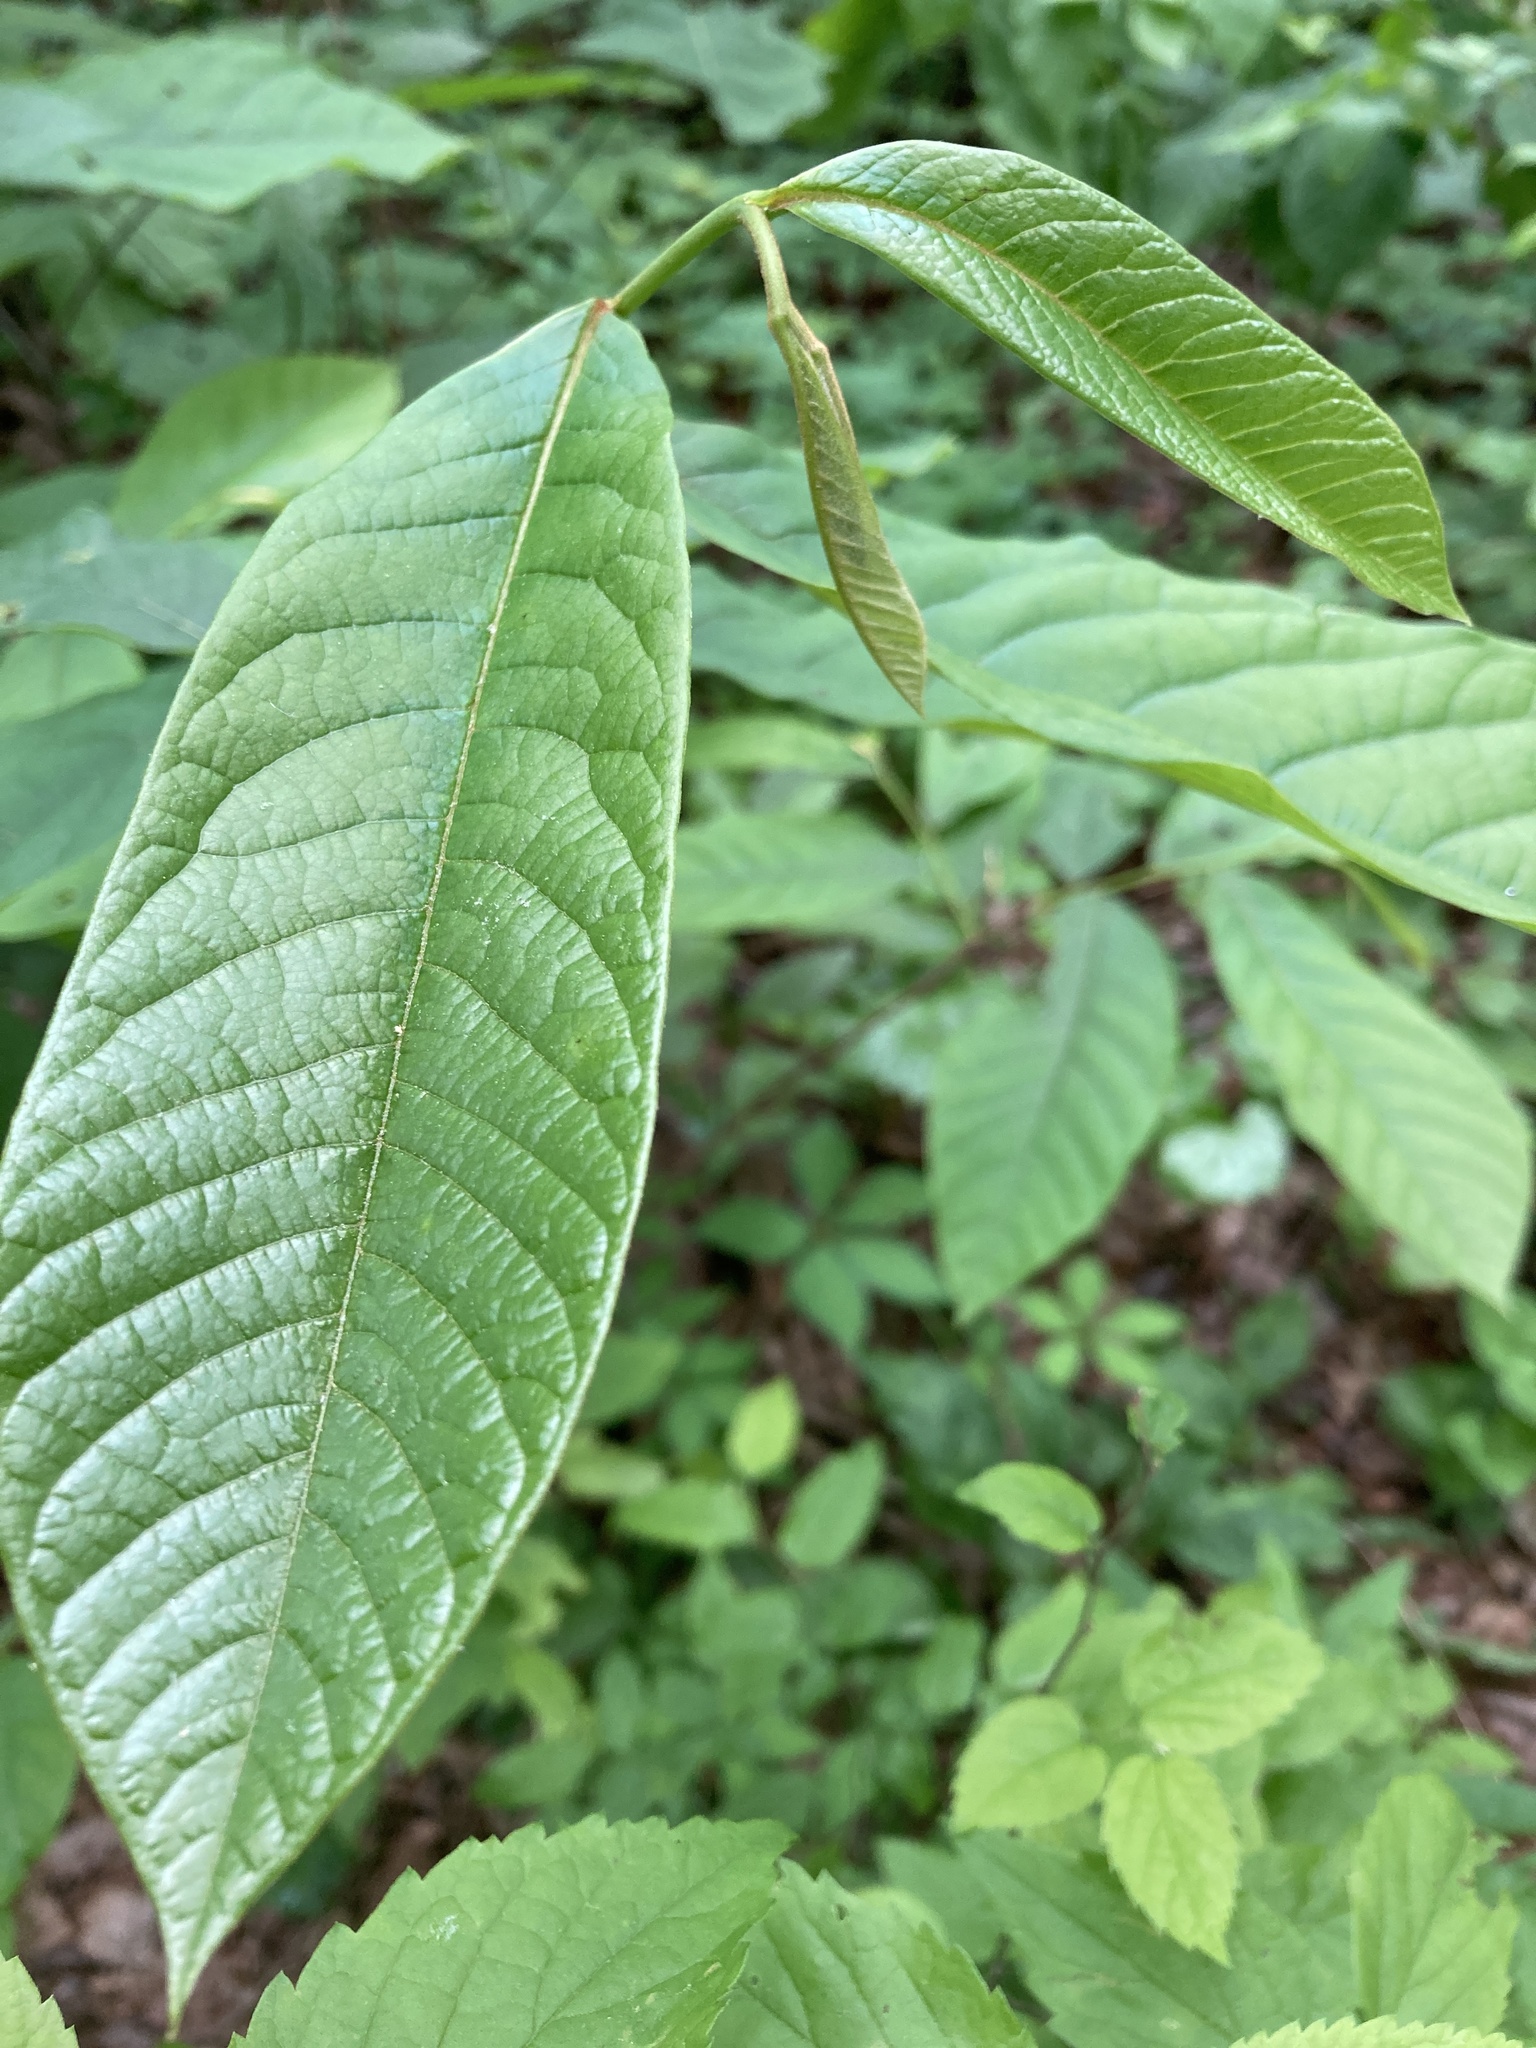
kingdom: Plantae
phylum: Tracheophyta
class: Magnoliopsida
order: Magnoliales
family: Annonaceae
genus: Asimina
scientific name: Asimina triloba
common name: Dog-banana
